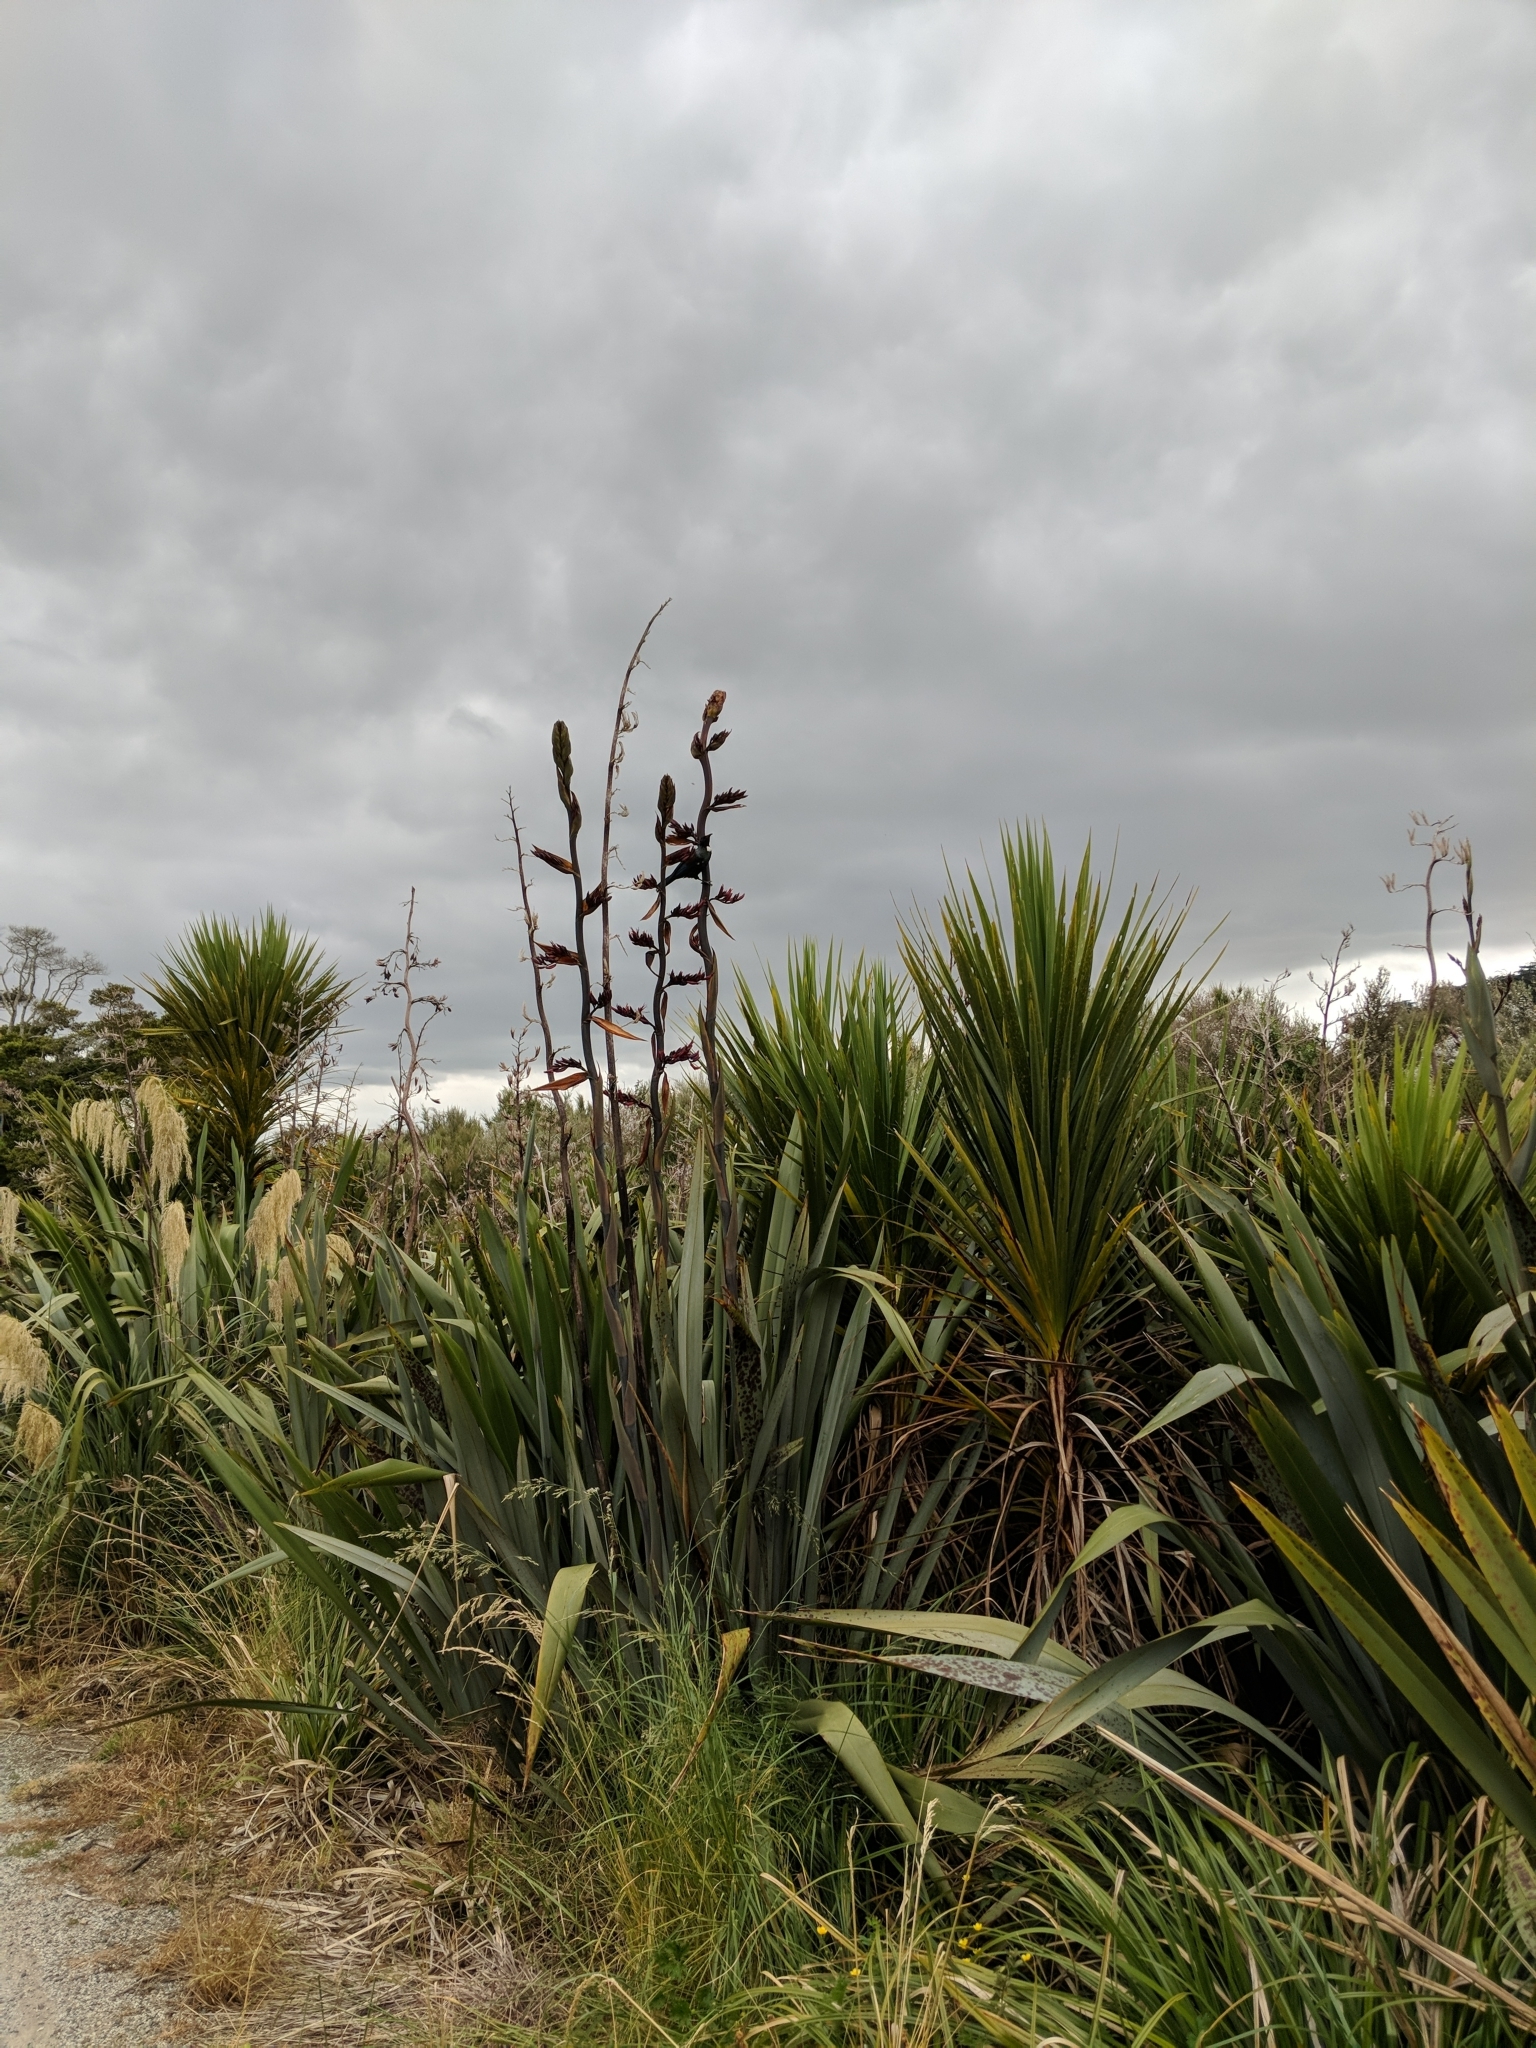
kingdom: Animalia
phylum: Chordata
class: Aves
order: Passeriformes
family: Meliphagidae
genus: Prosthemadera
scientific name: Prosthemadera novaeseelandiae
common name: Tui
